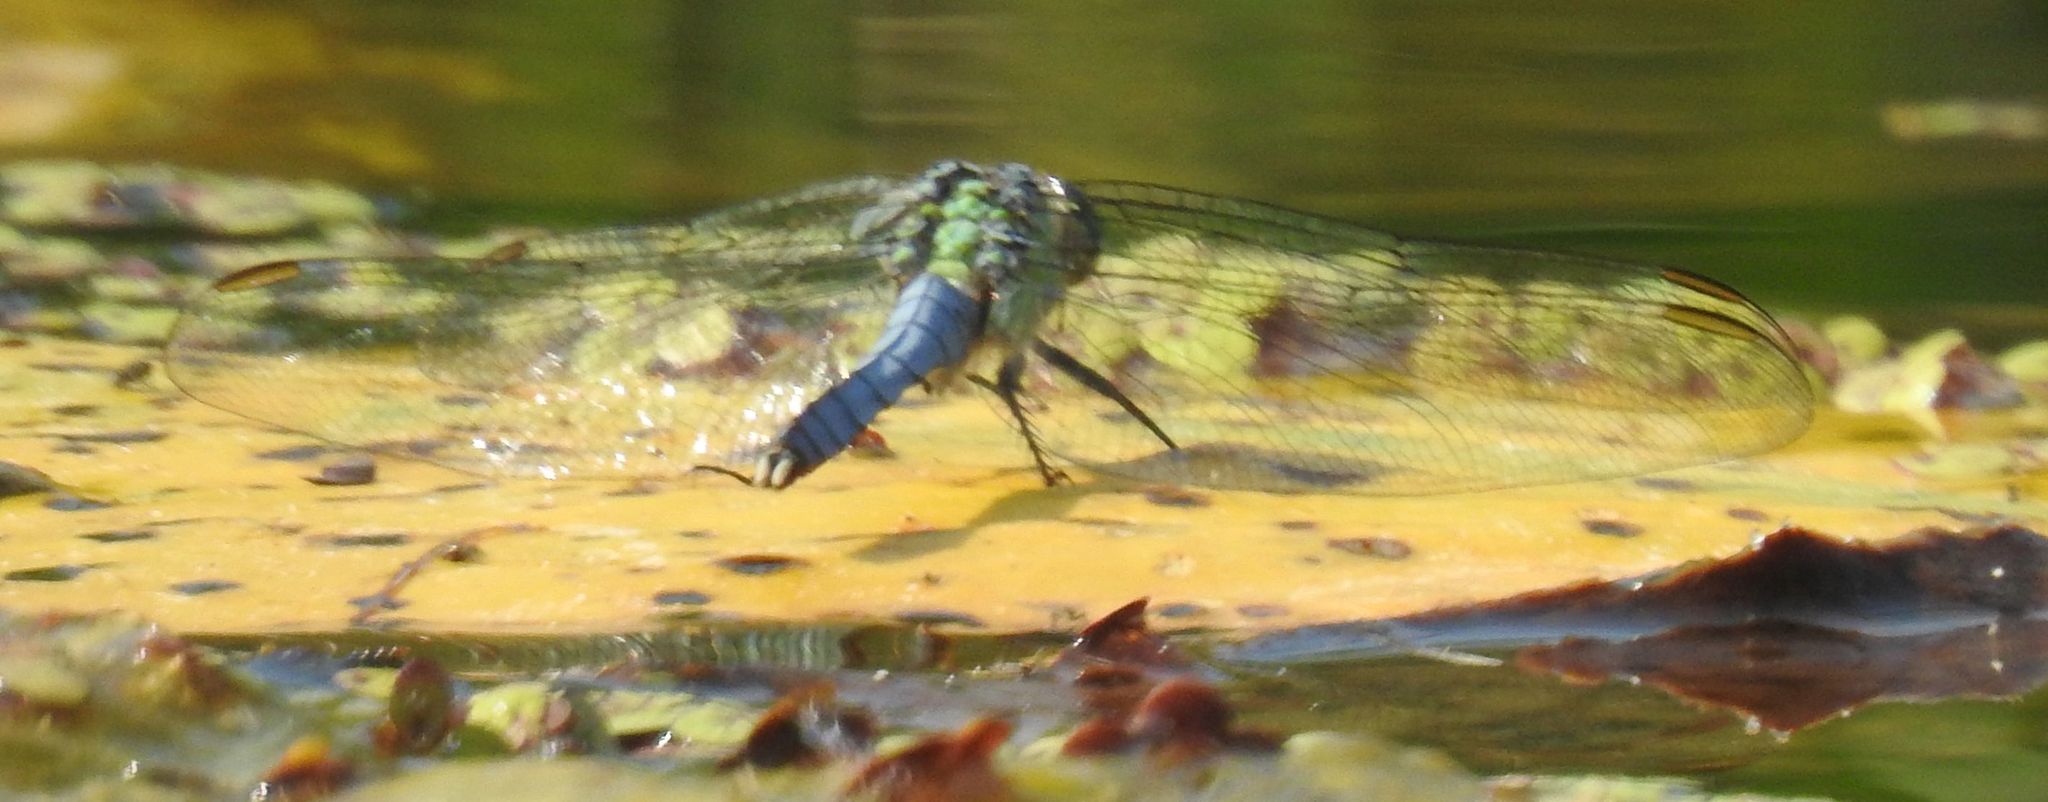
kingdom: Animalia
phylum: Arthropoda
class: Insecta
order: Odonata
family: Libellulidae
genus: Erythemis
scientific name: Erythemis simplicicollis
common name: Eastern pondhawk
